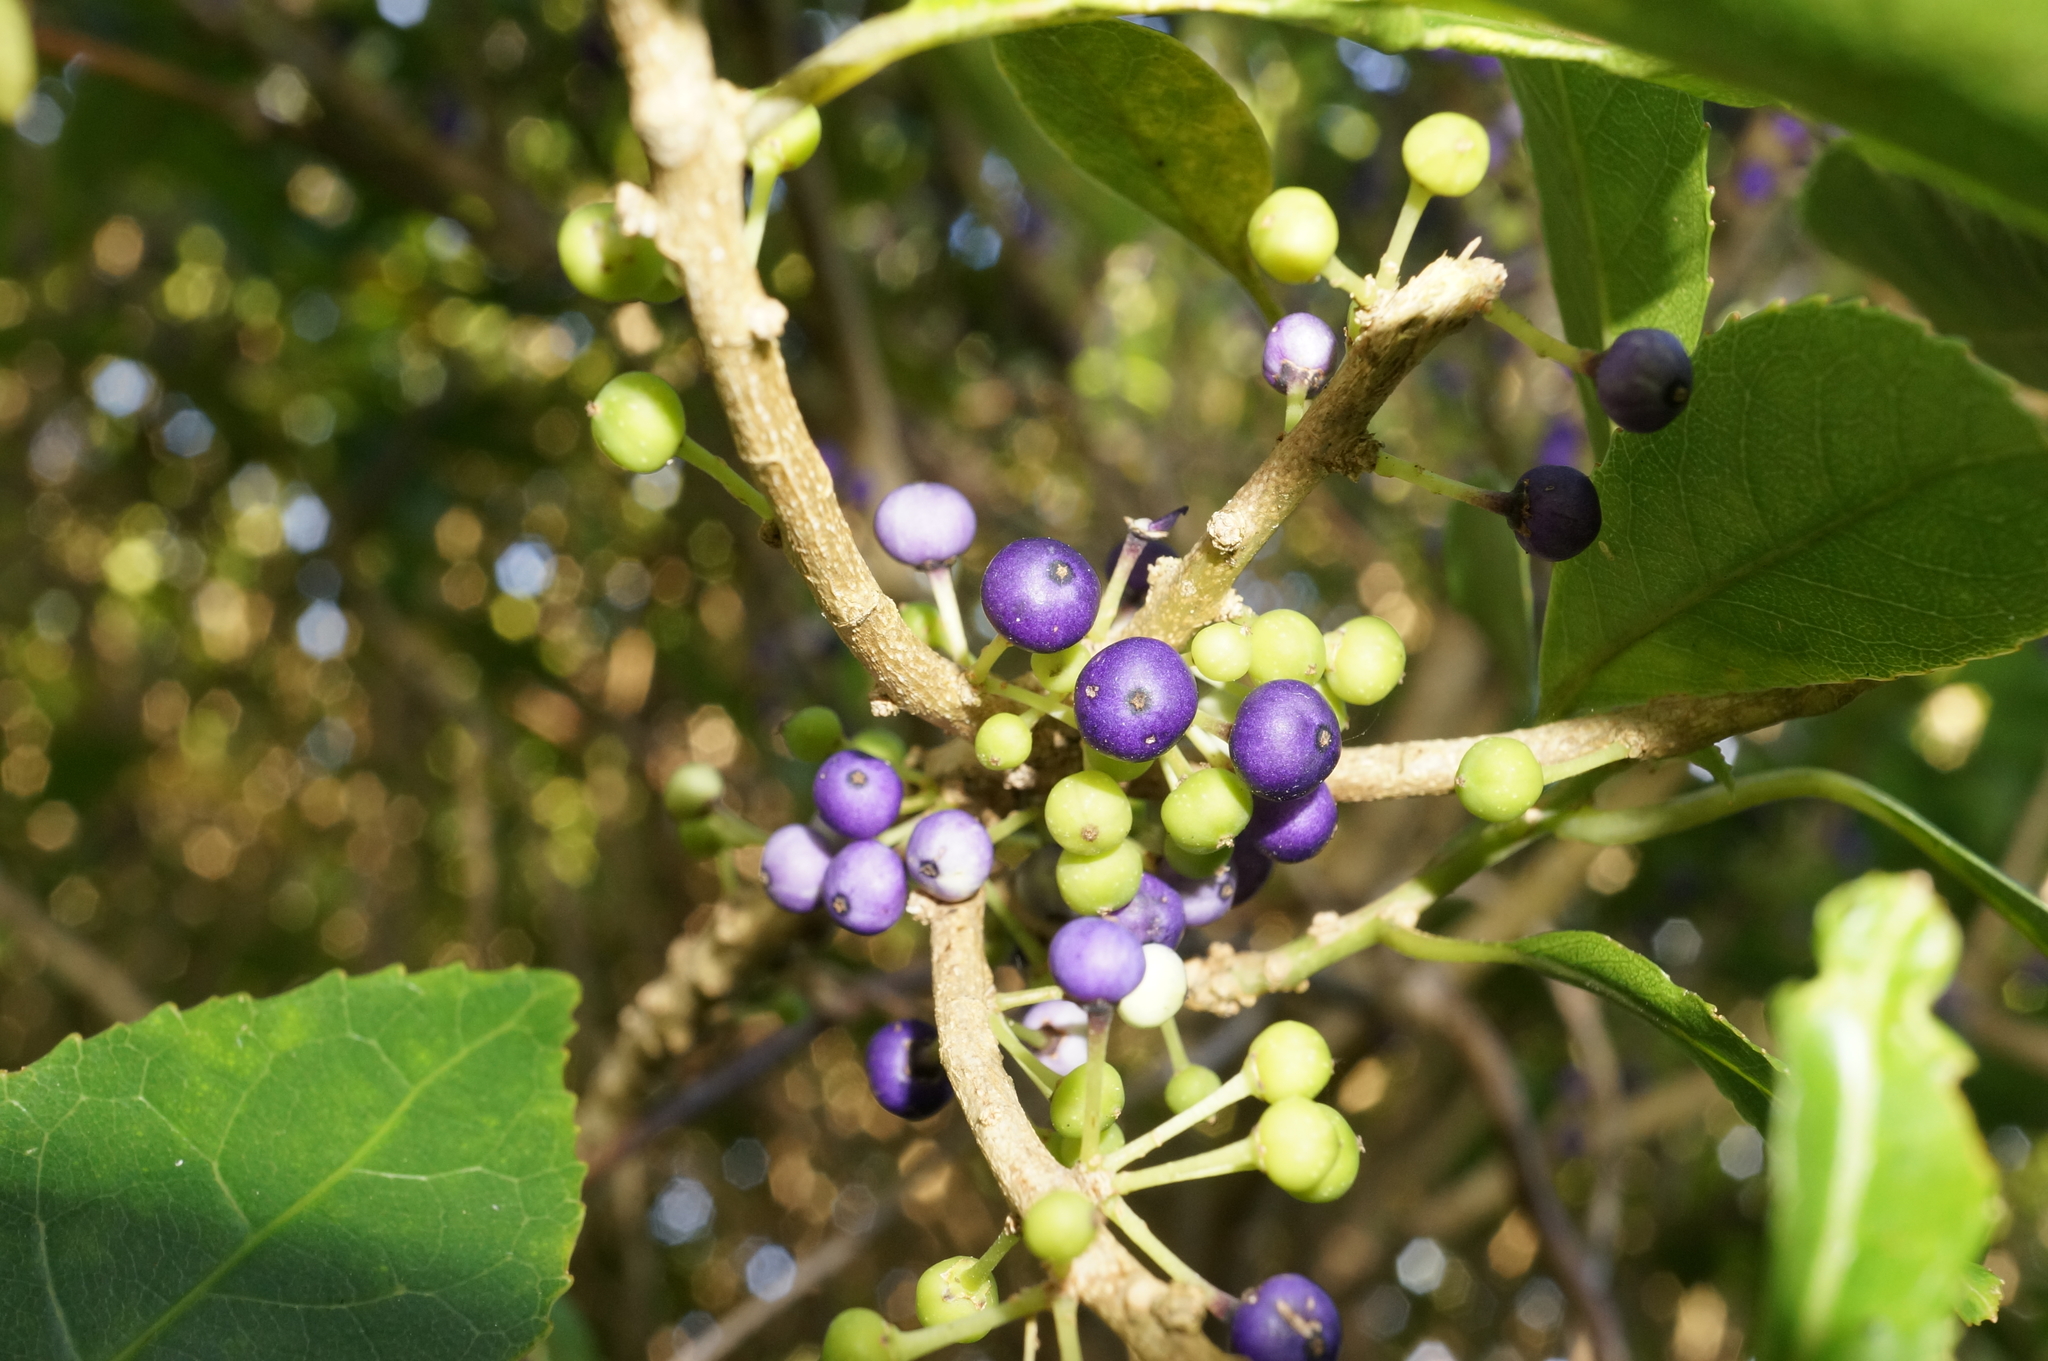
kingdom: Plantae
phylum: Tracheophyta
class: Magnoliopsida
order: Malpighiales
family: Violaceae
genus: Melicytus
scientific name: Melicytus ramiflorus
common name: Mahoe
